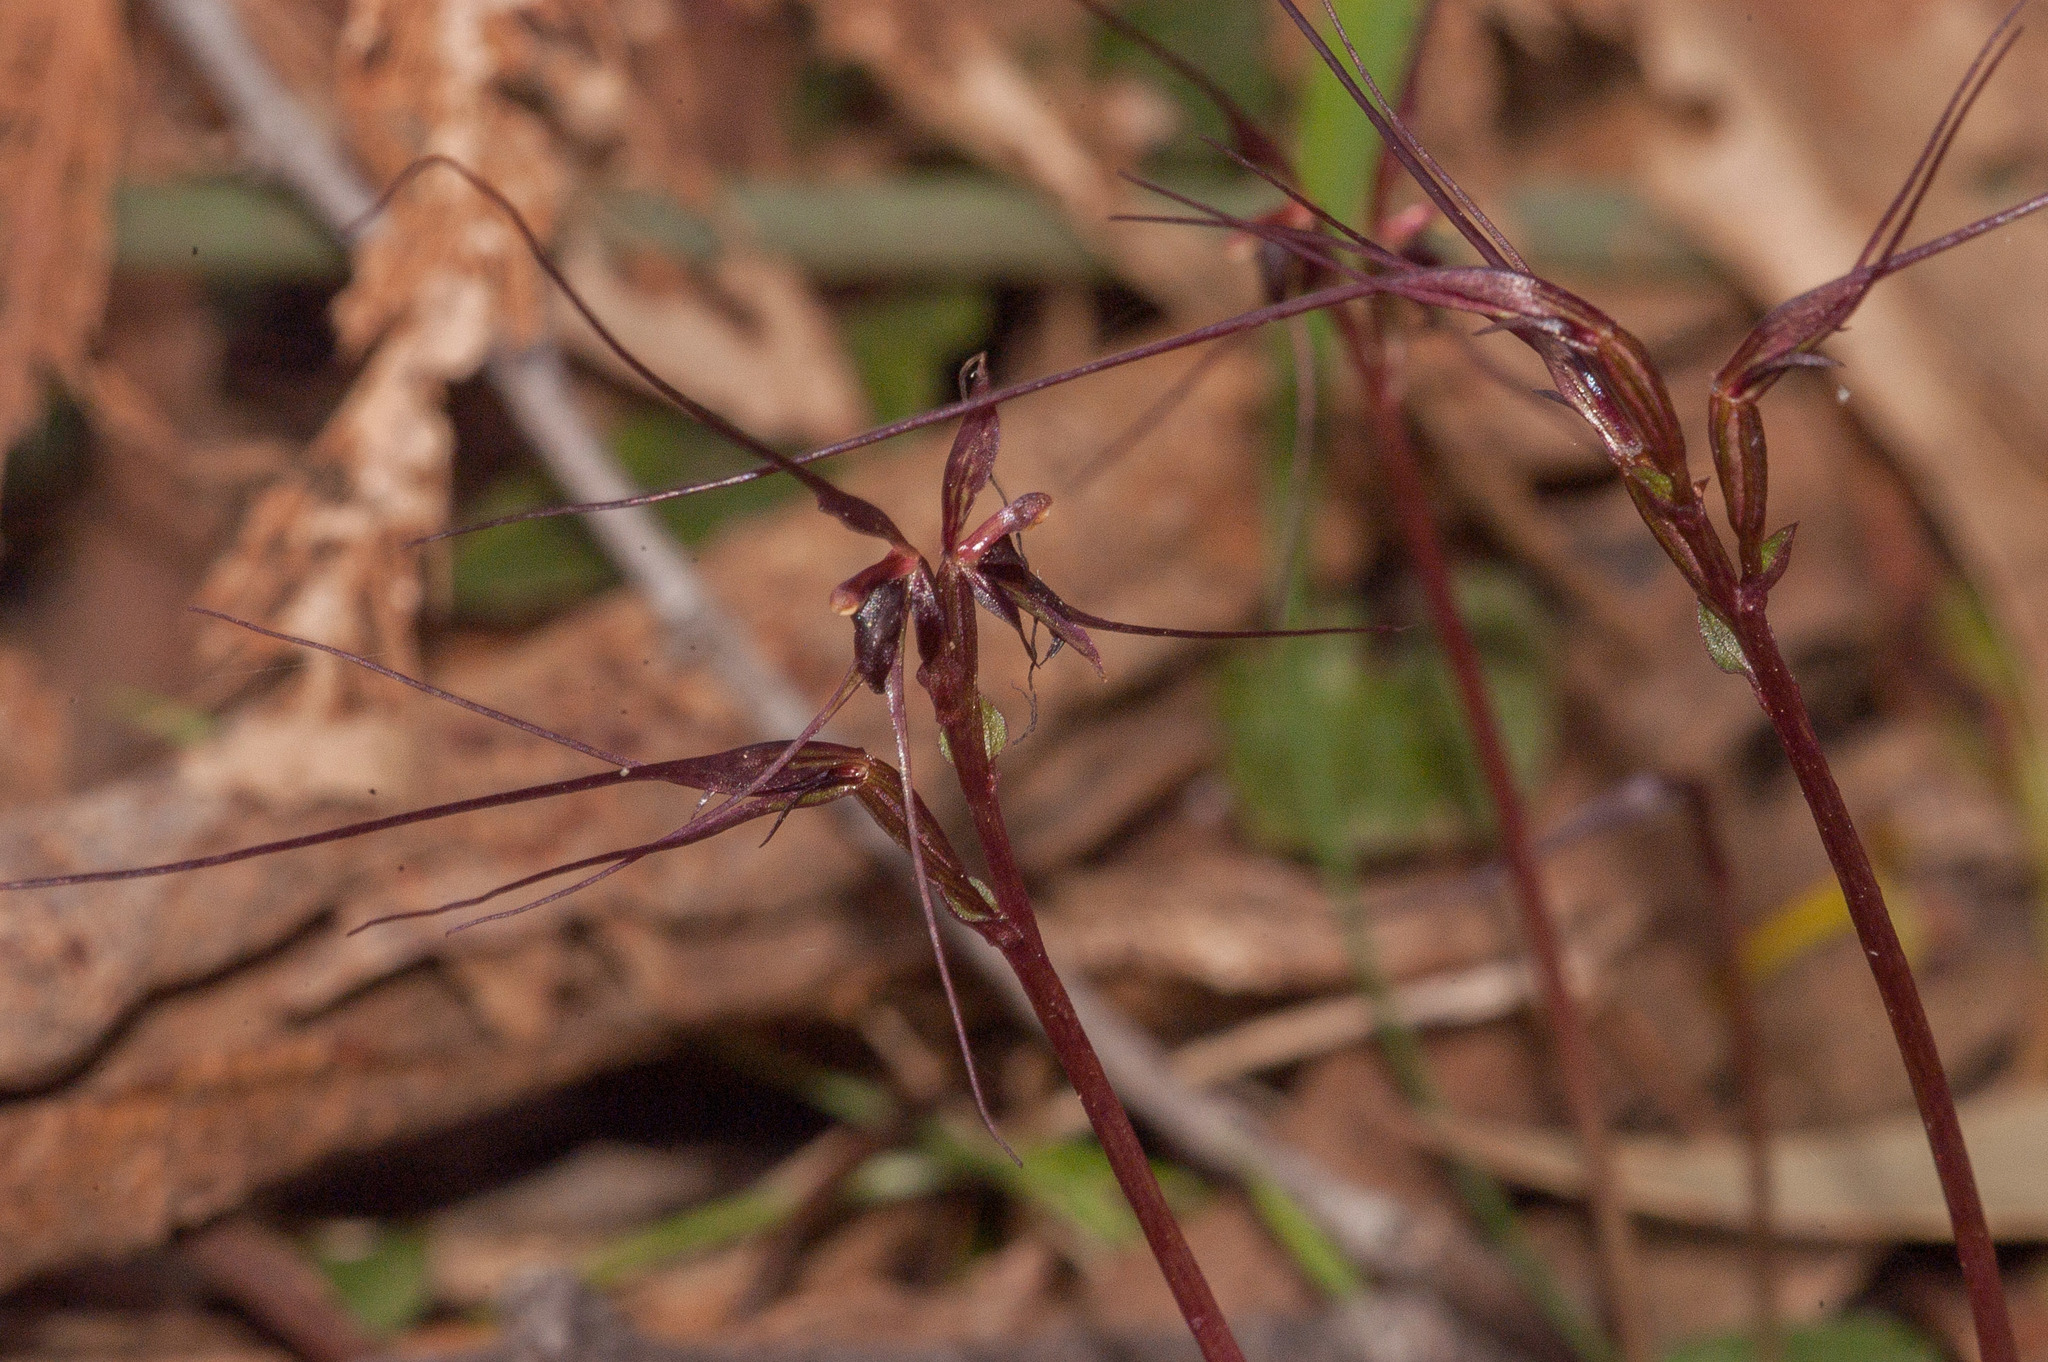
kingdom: Plantae
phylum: Tracheophyta
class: Liliopsida
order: Asparagales
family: Orchidaceae
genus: Acianthus
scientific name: Acianthus caudatus
